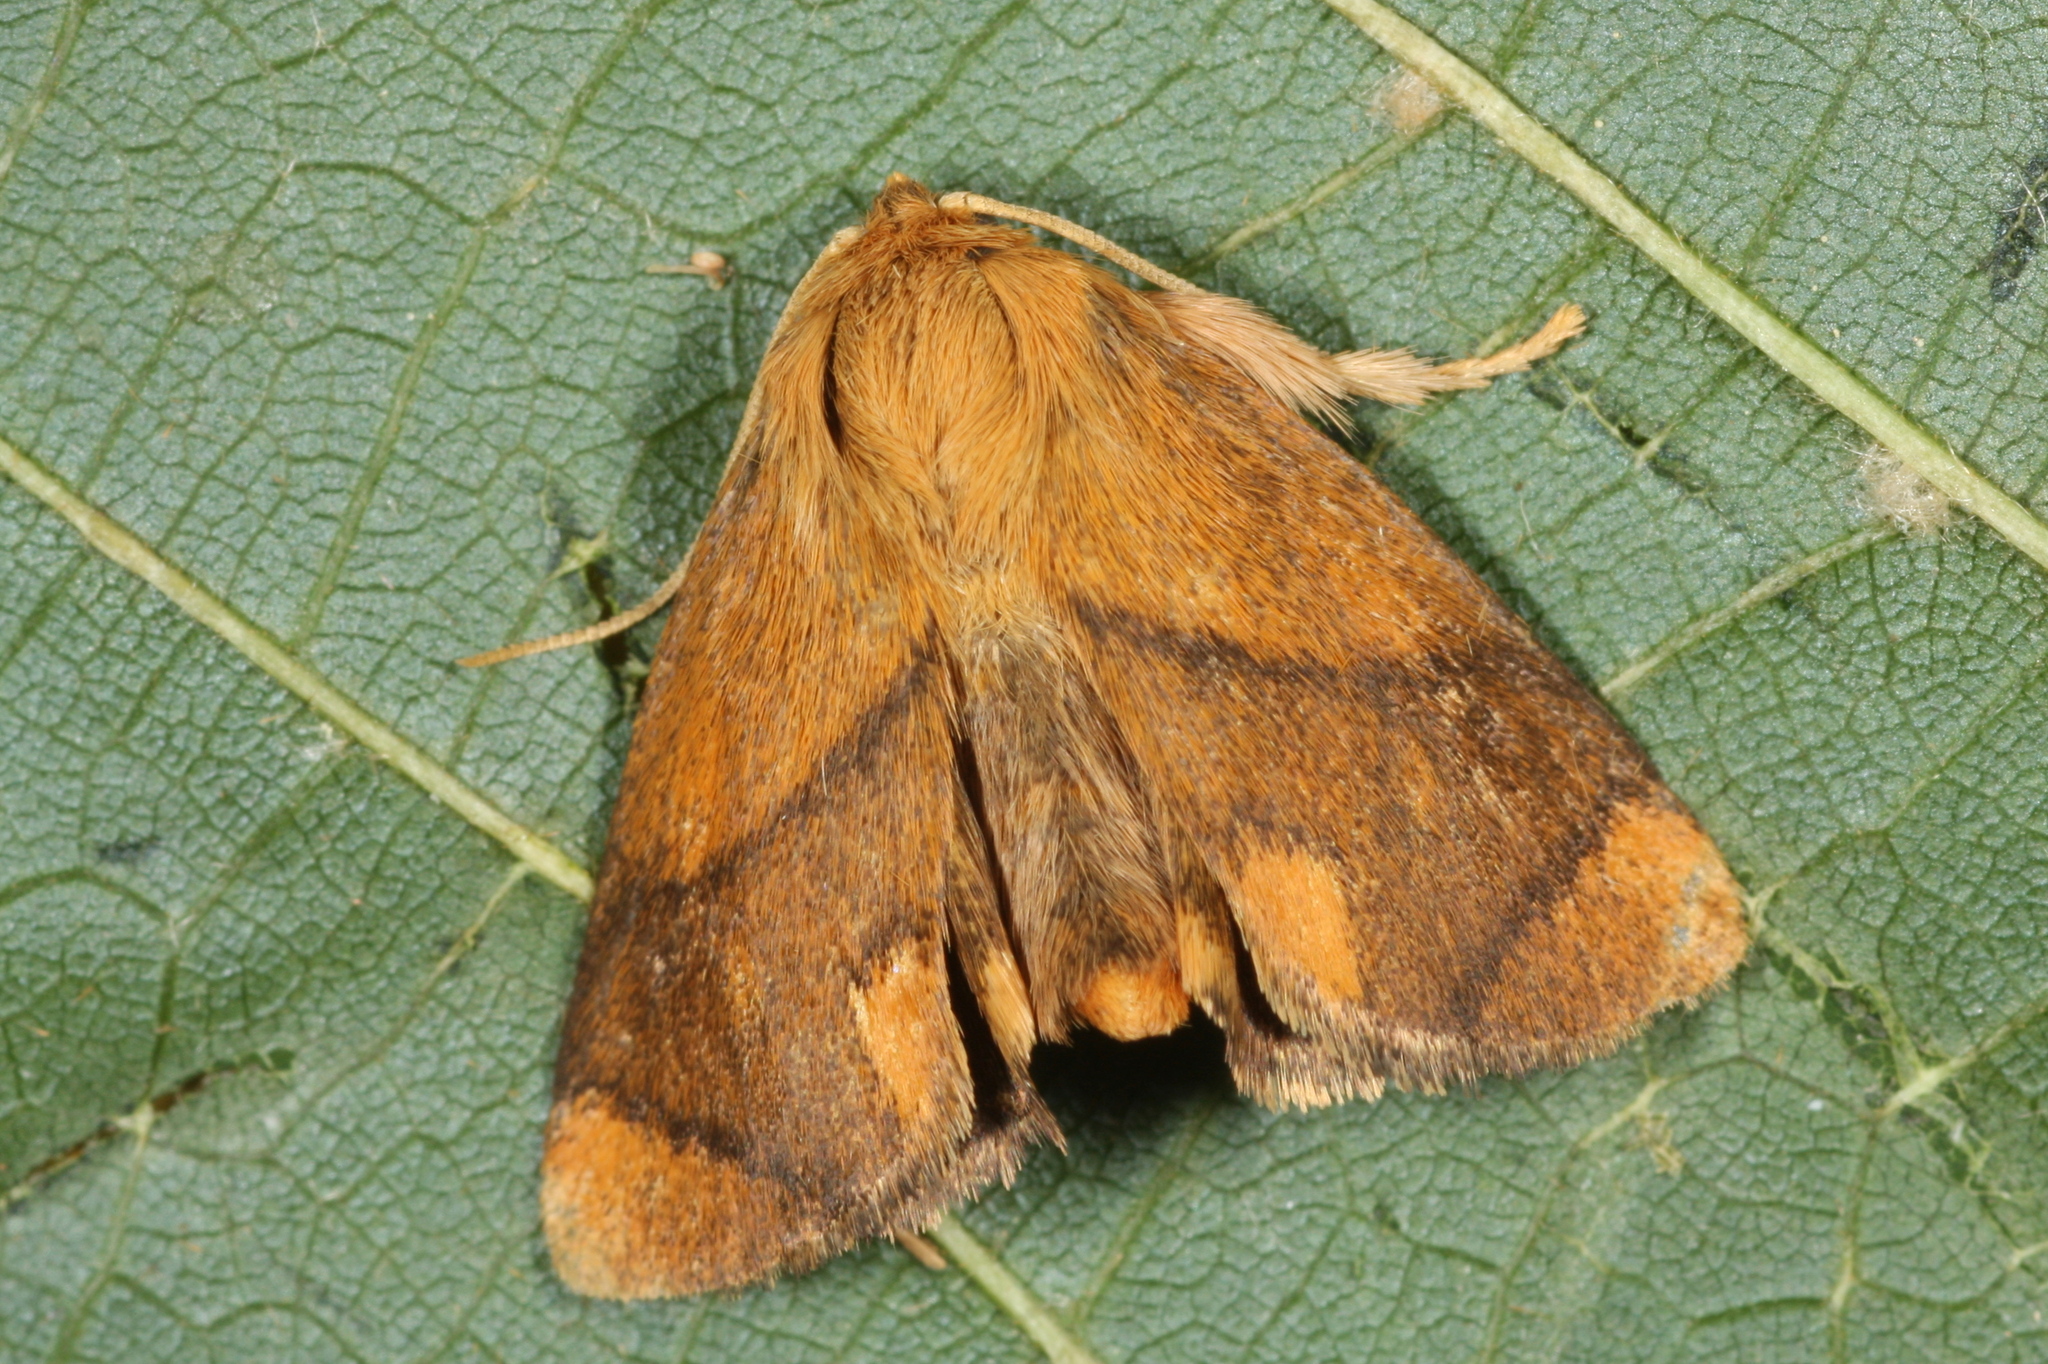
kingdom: Animalia
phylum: Arthropoda
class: Insecta
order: Lepidoptera
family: Limacodidae
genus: Apoda
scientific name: Apoda limacodes
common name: Festoon
